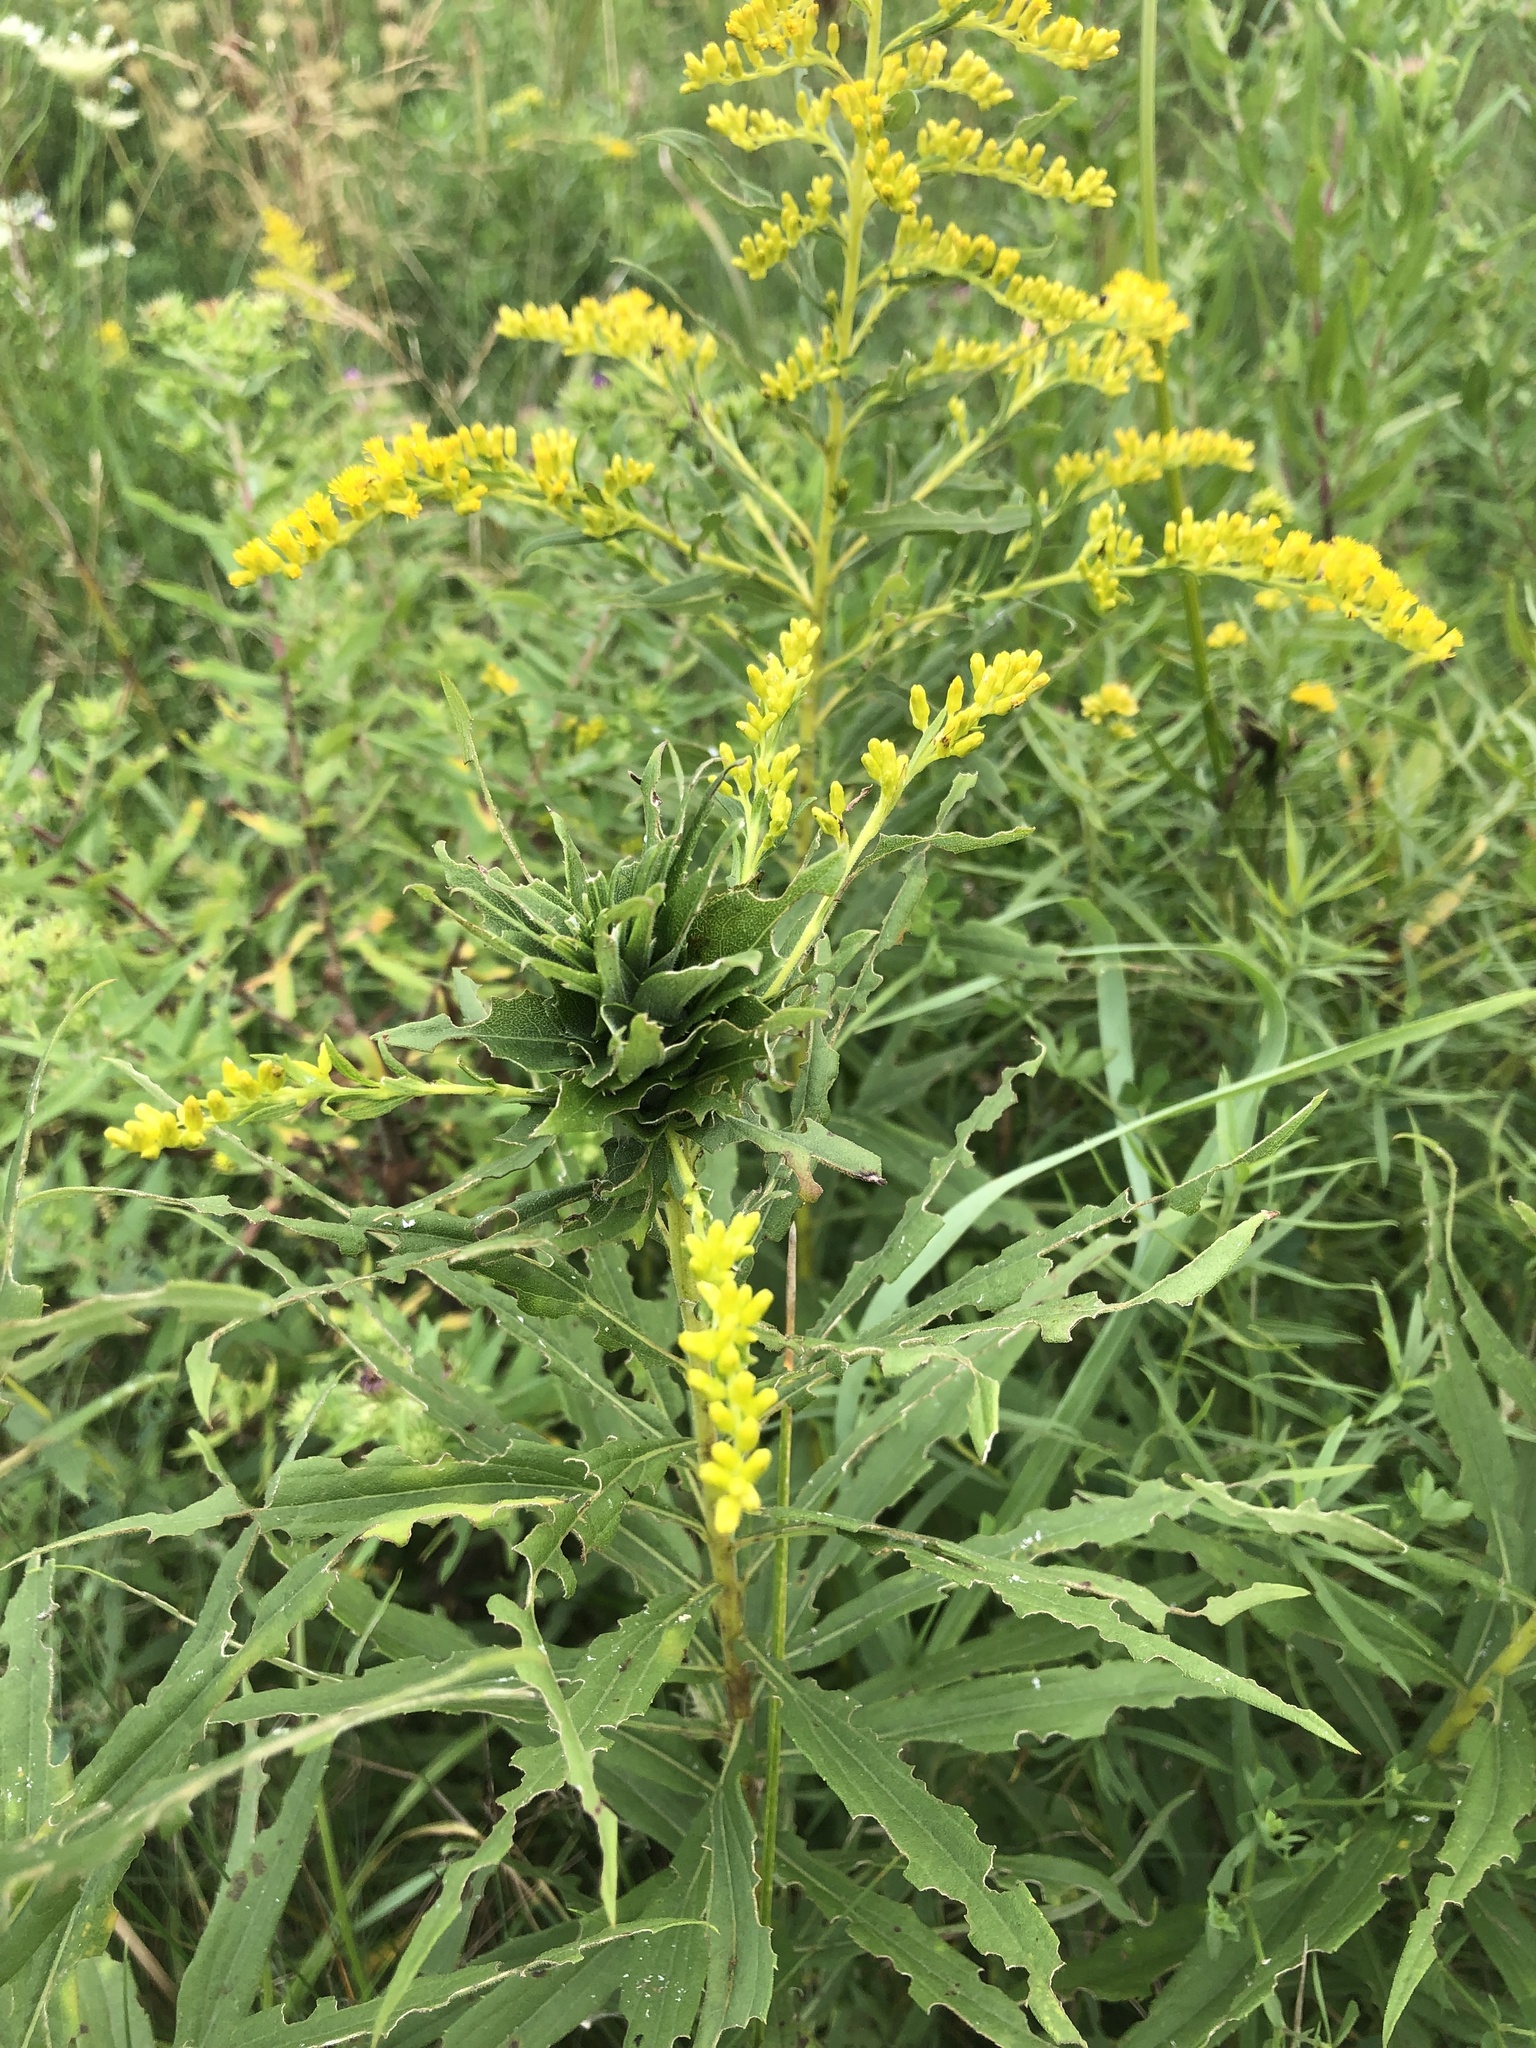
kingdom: Animalia
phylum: Arthropoda
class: Insecta
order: Diptera
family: Cecidomyiidae
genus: Rhopalomyia
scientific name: Rhopalomyia solidaginis
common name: Goldenrod bunch gall midge
